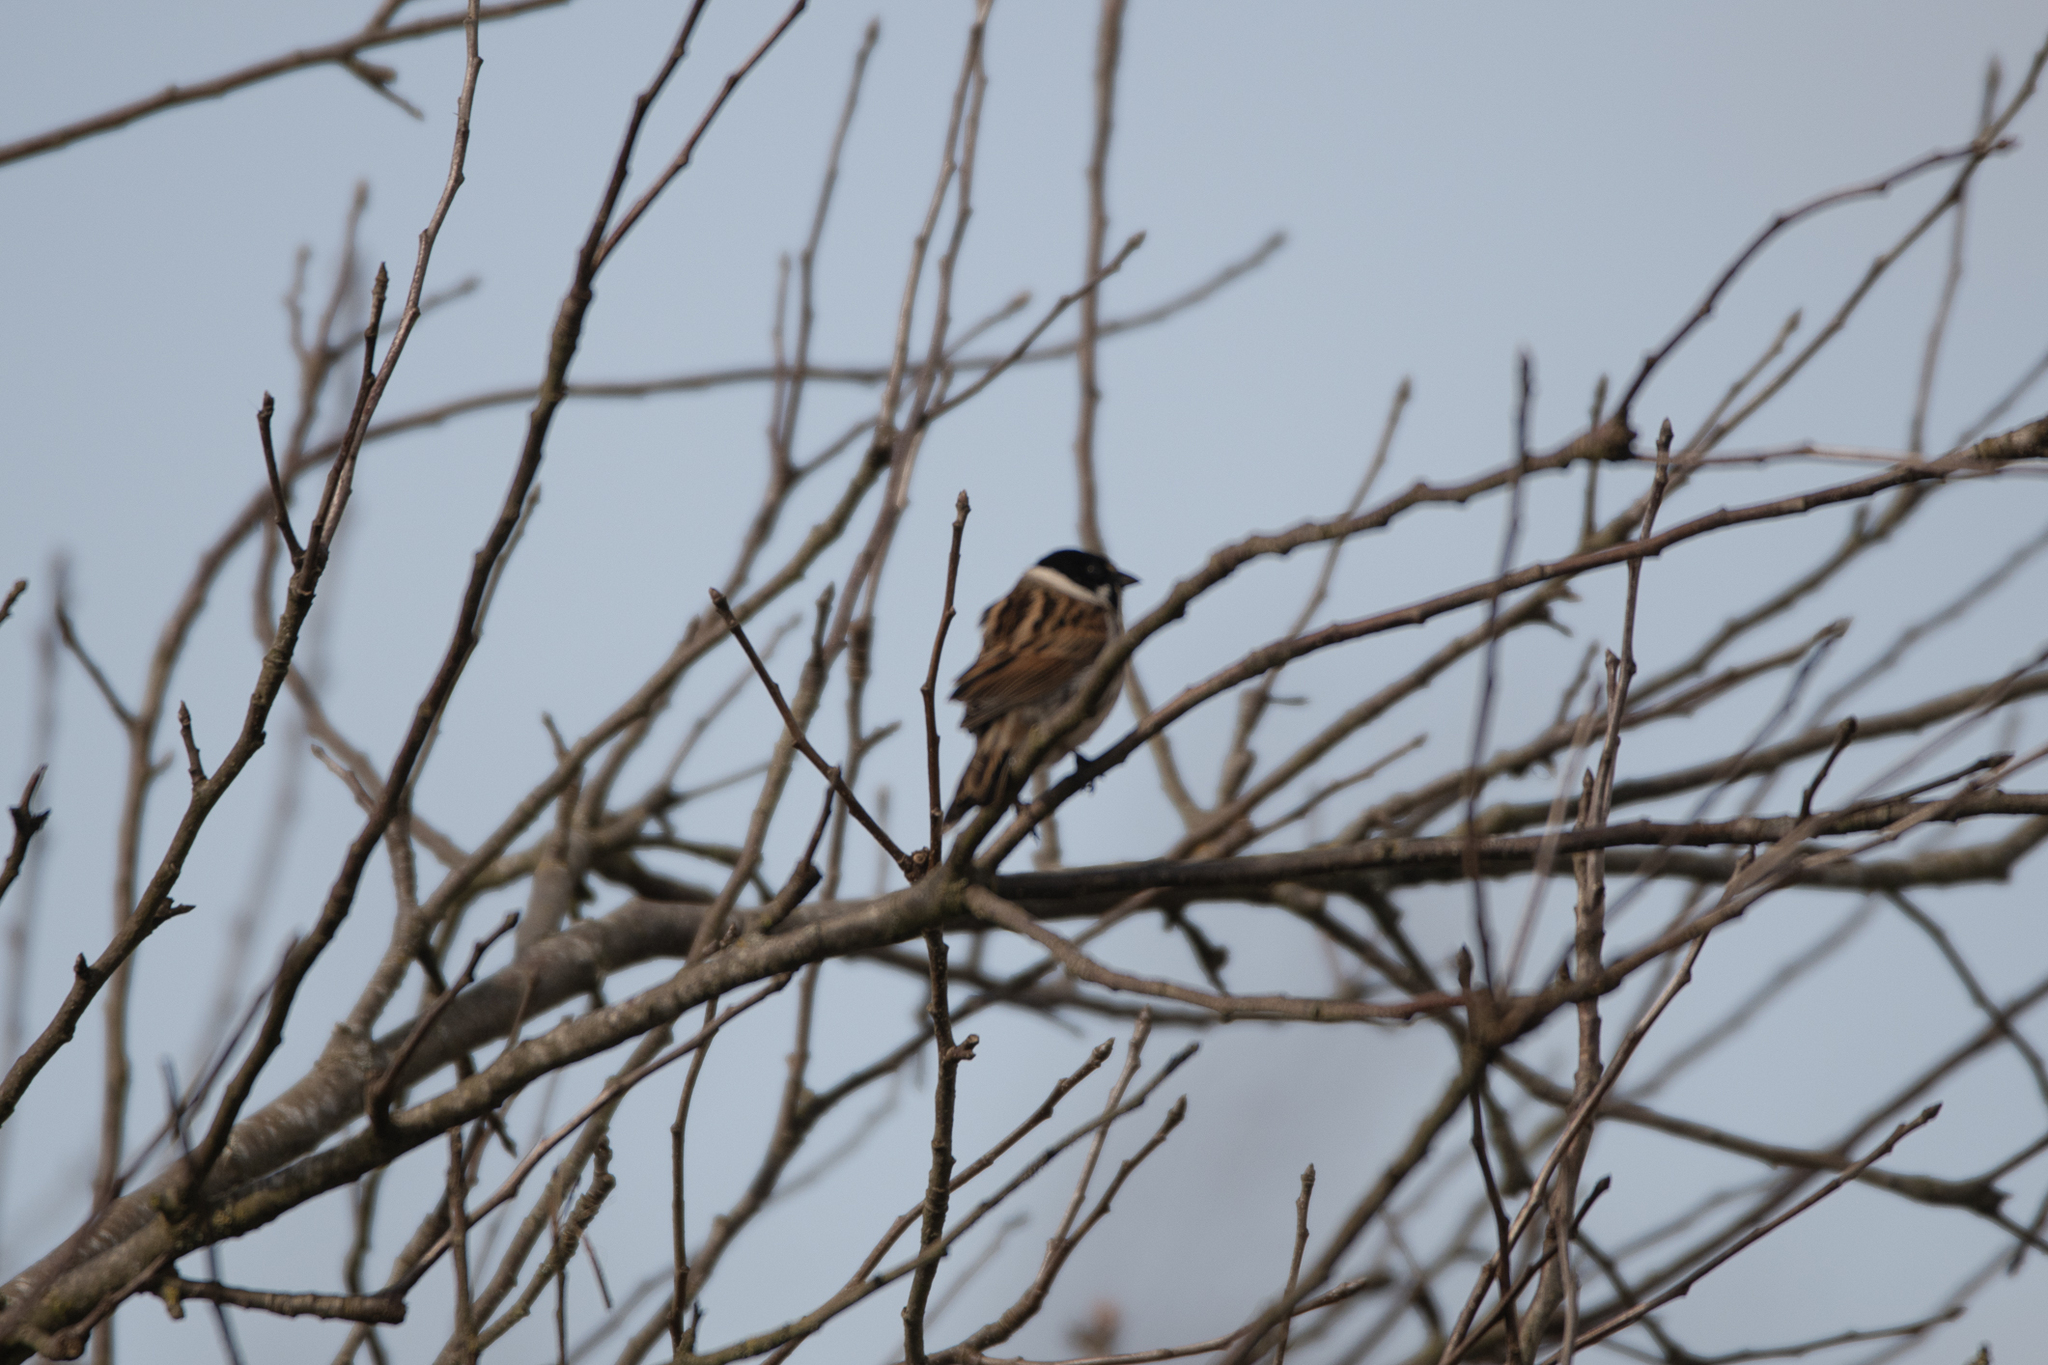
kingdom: Animalia
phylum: Chordata
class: Aves
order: Passeriformes
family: Emberizidae
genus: Emberiza
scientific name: Emberiza schoeniclus
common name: Reed bunting
